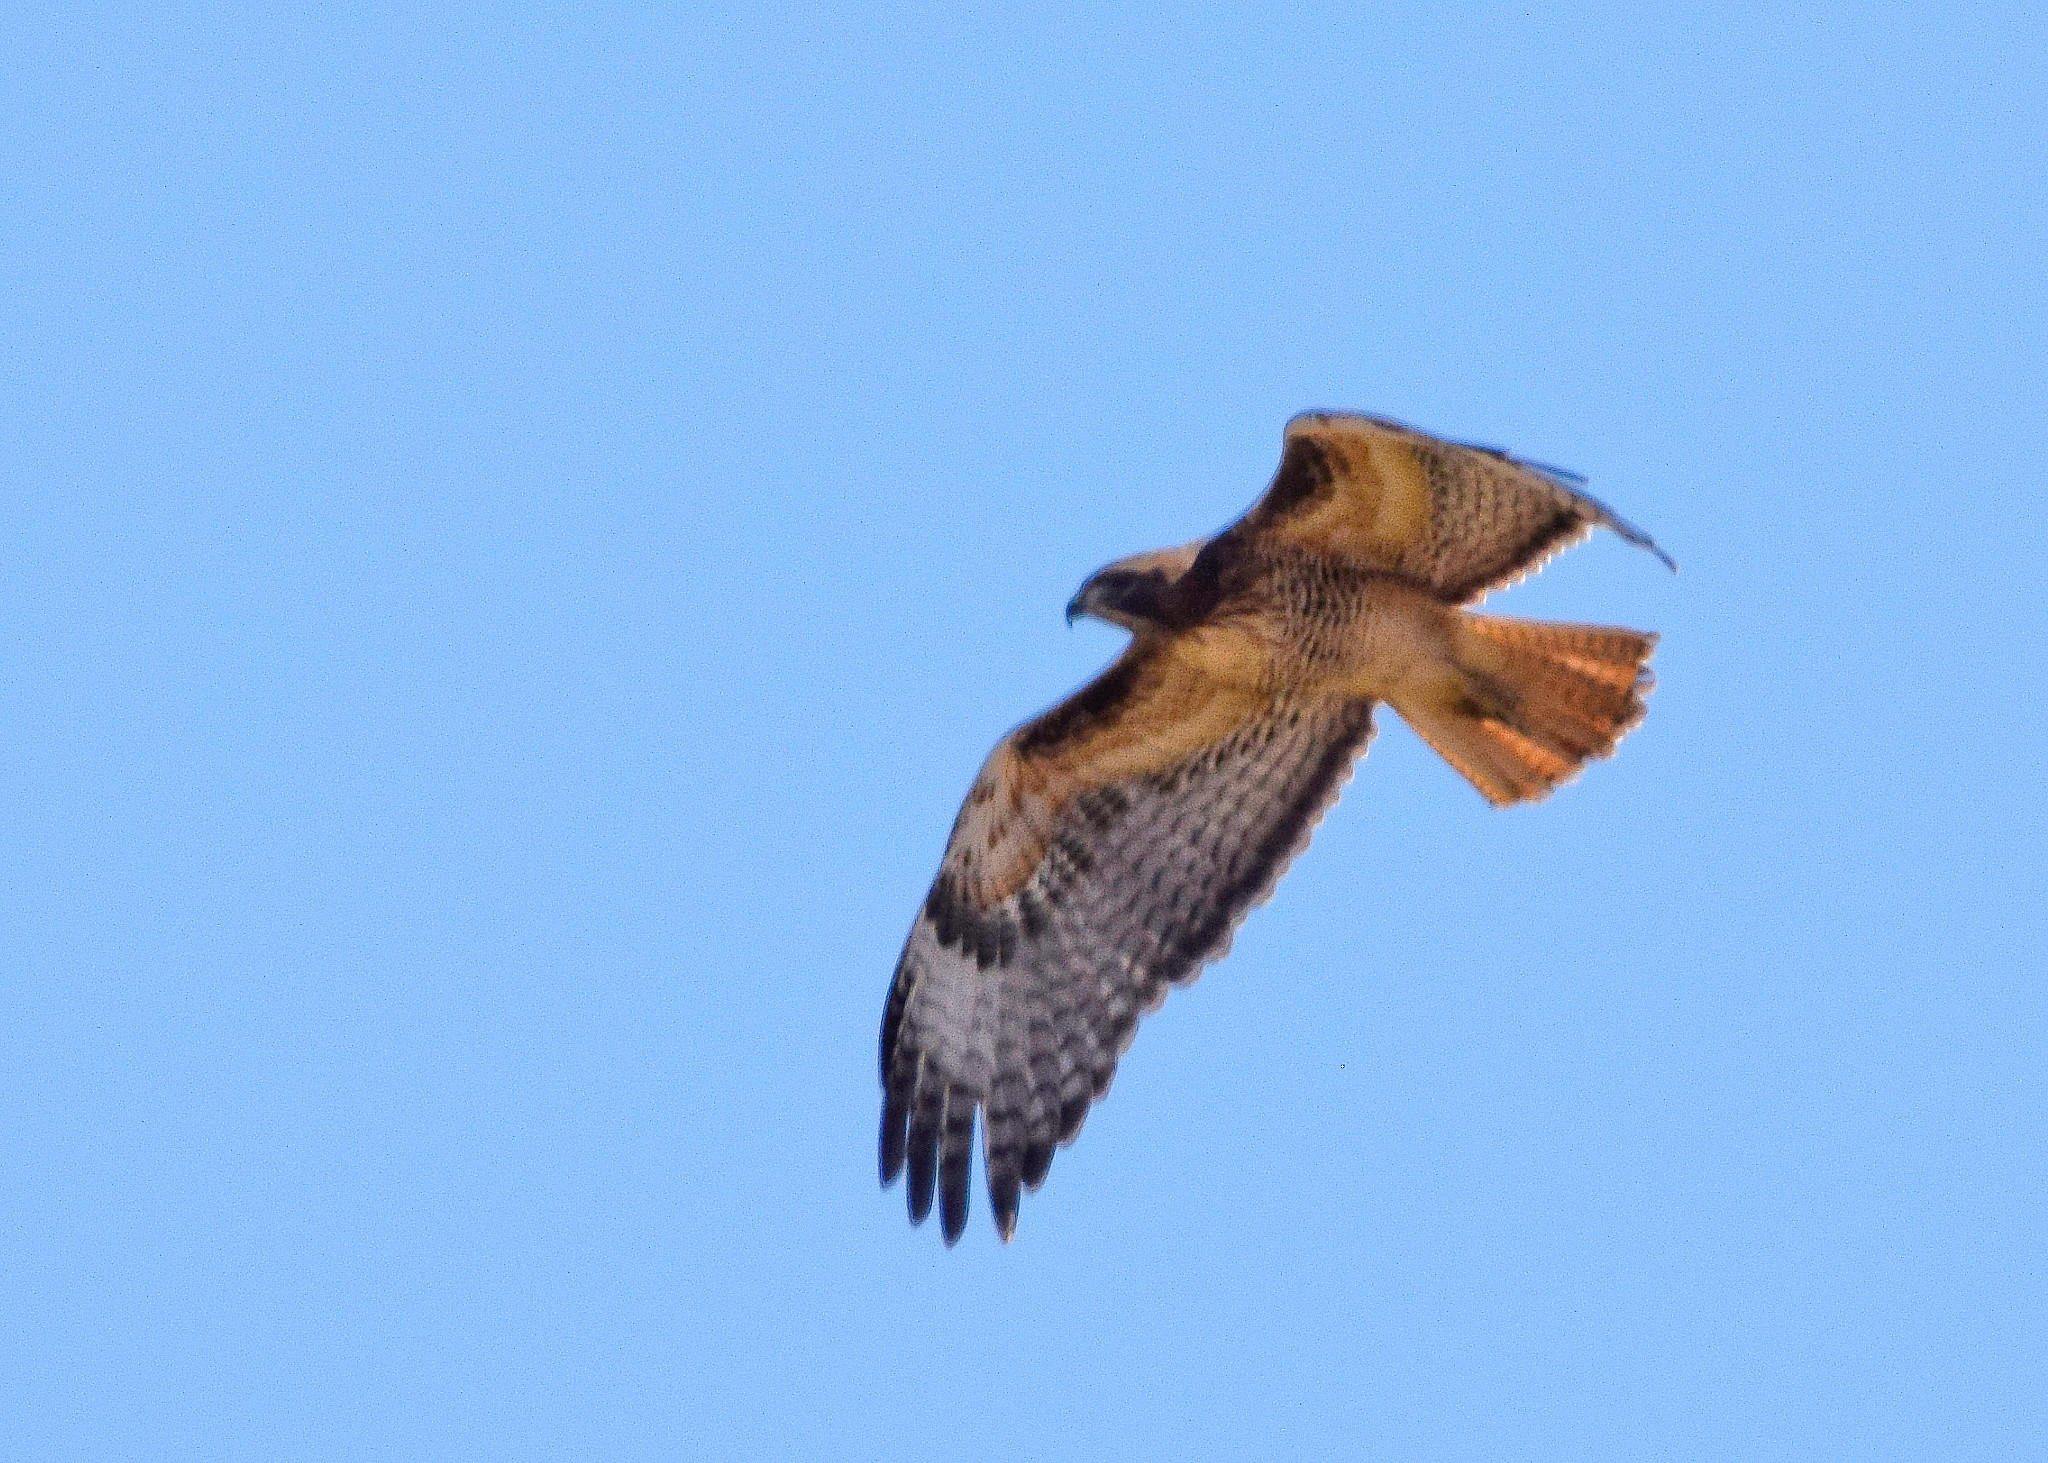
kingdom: Animalia
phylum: Chordata
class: Aves
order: Accipitriformes
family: Accipitridae
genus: Buteo
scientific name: Buteo jamaicensis
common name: Red-tailed hawk
